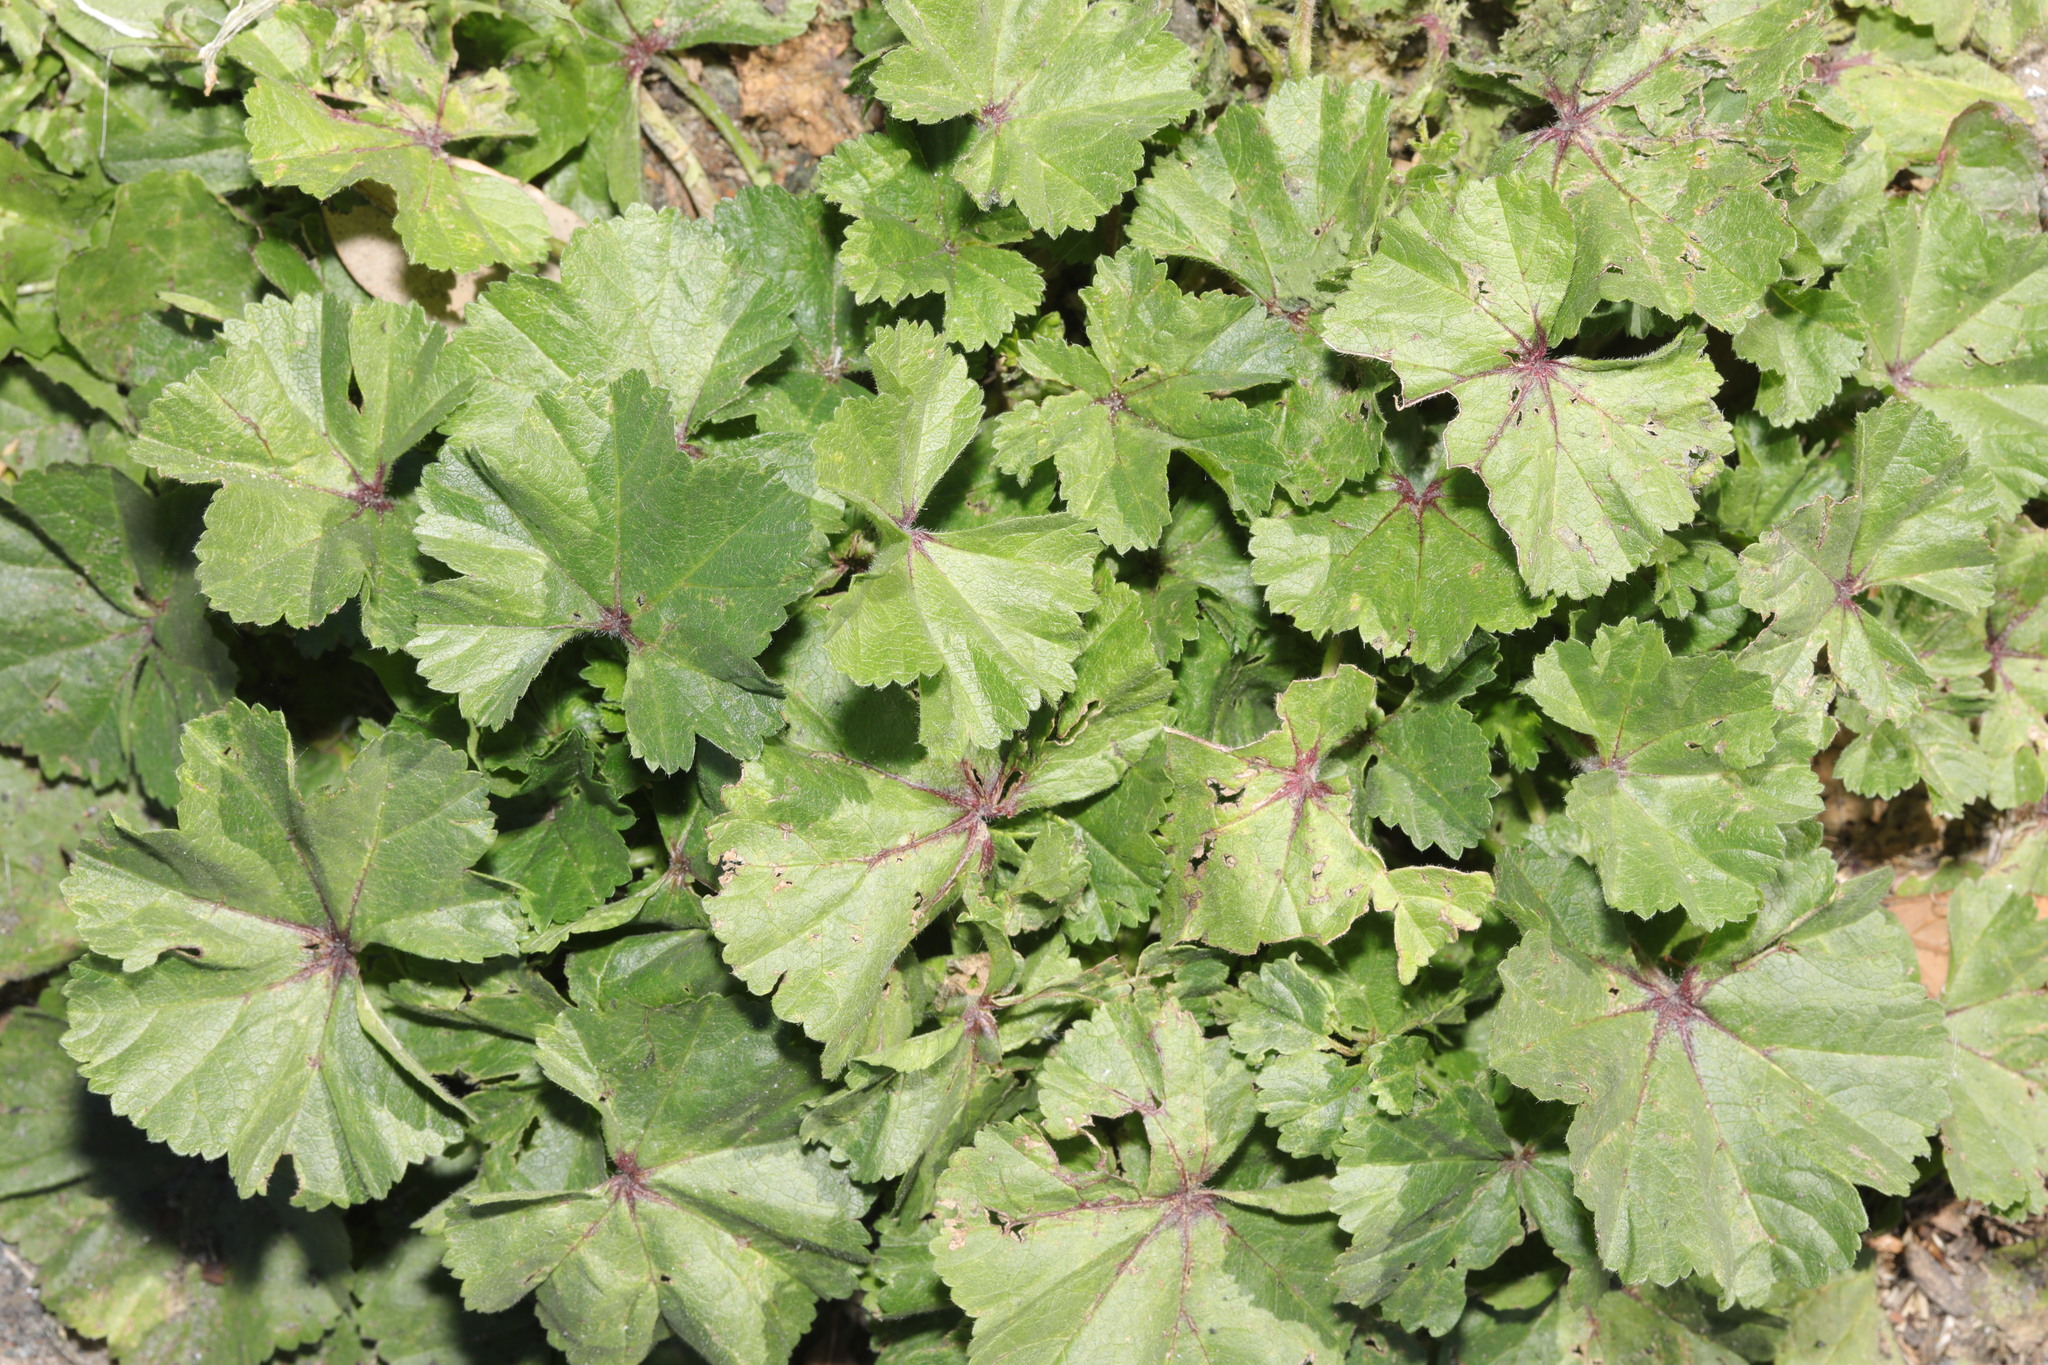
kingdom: Plantae
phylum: Tracheophyta
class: Magnoliopsida
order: Malvales
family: Malvaceae
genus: Malva
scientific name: Malva sylvestris
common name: Common mallow
